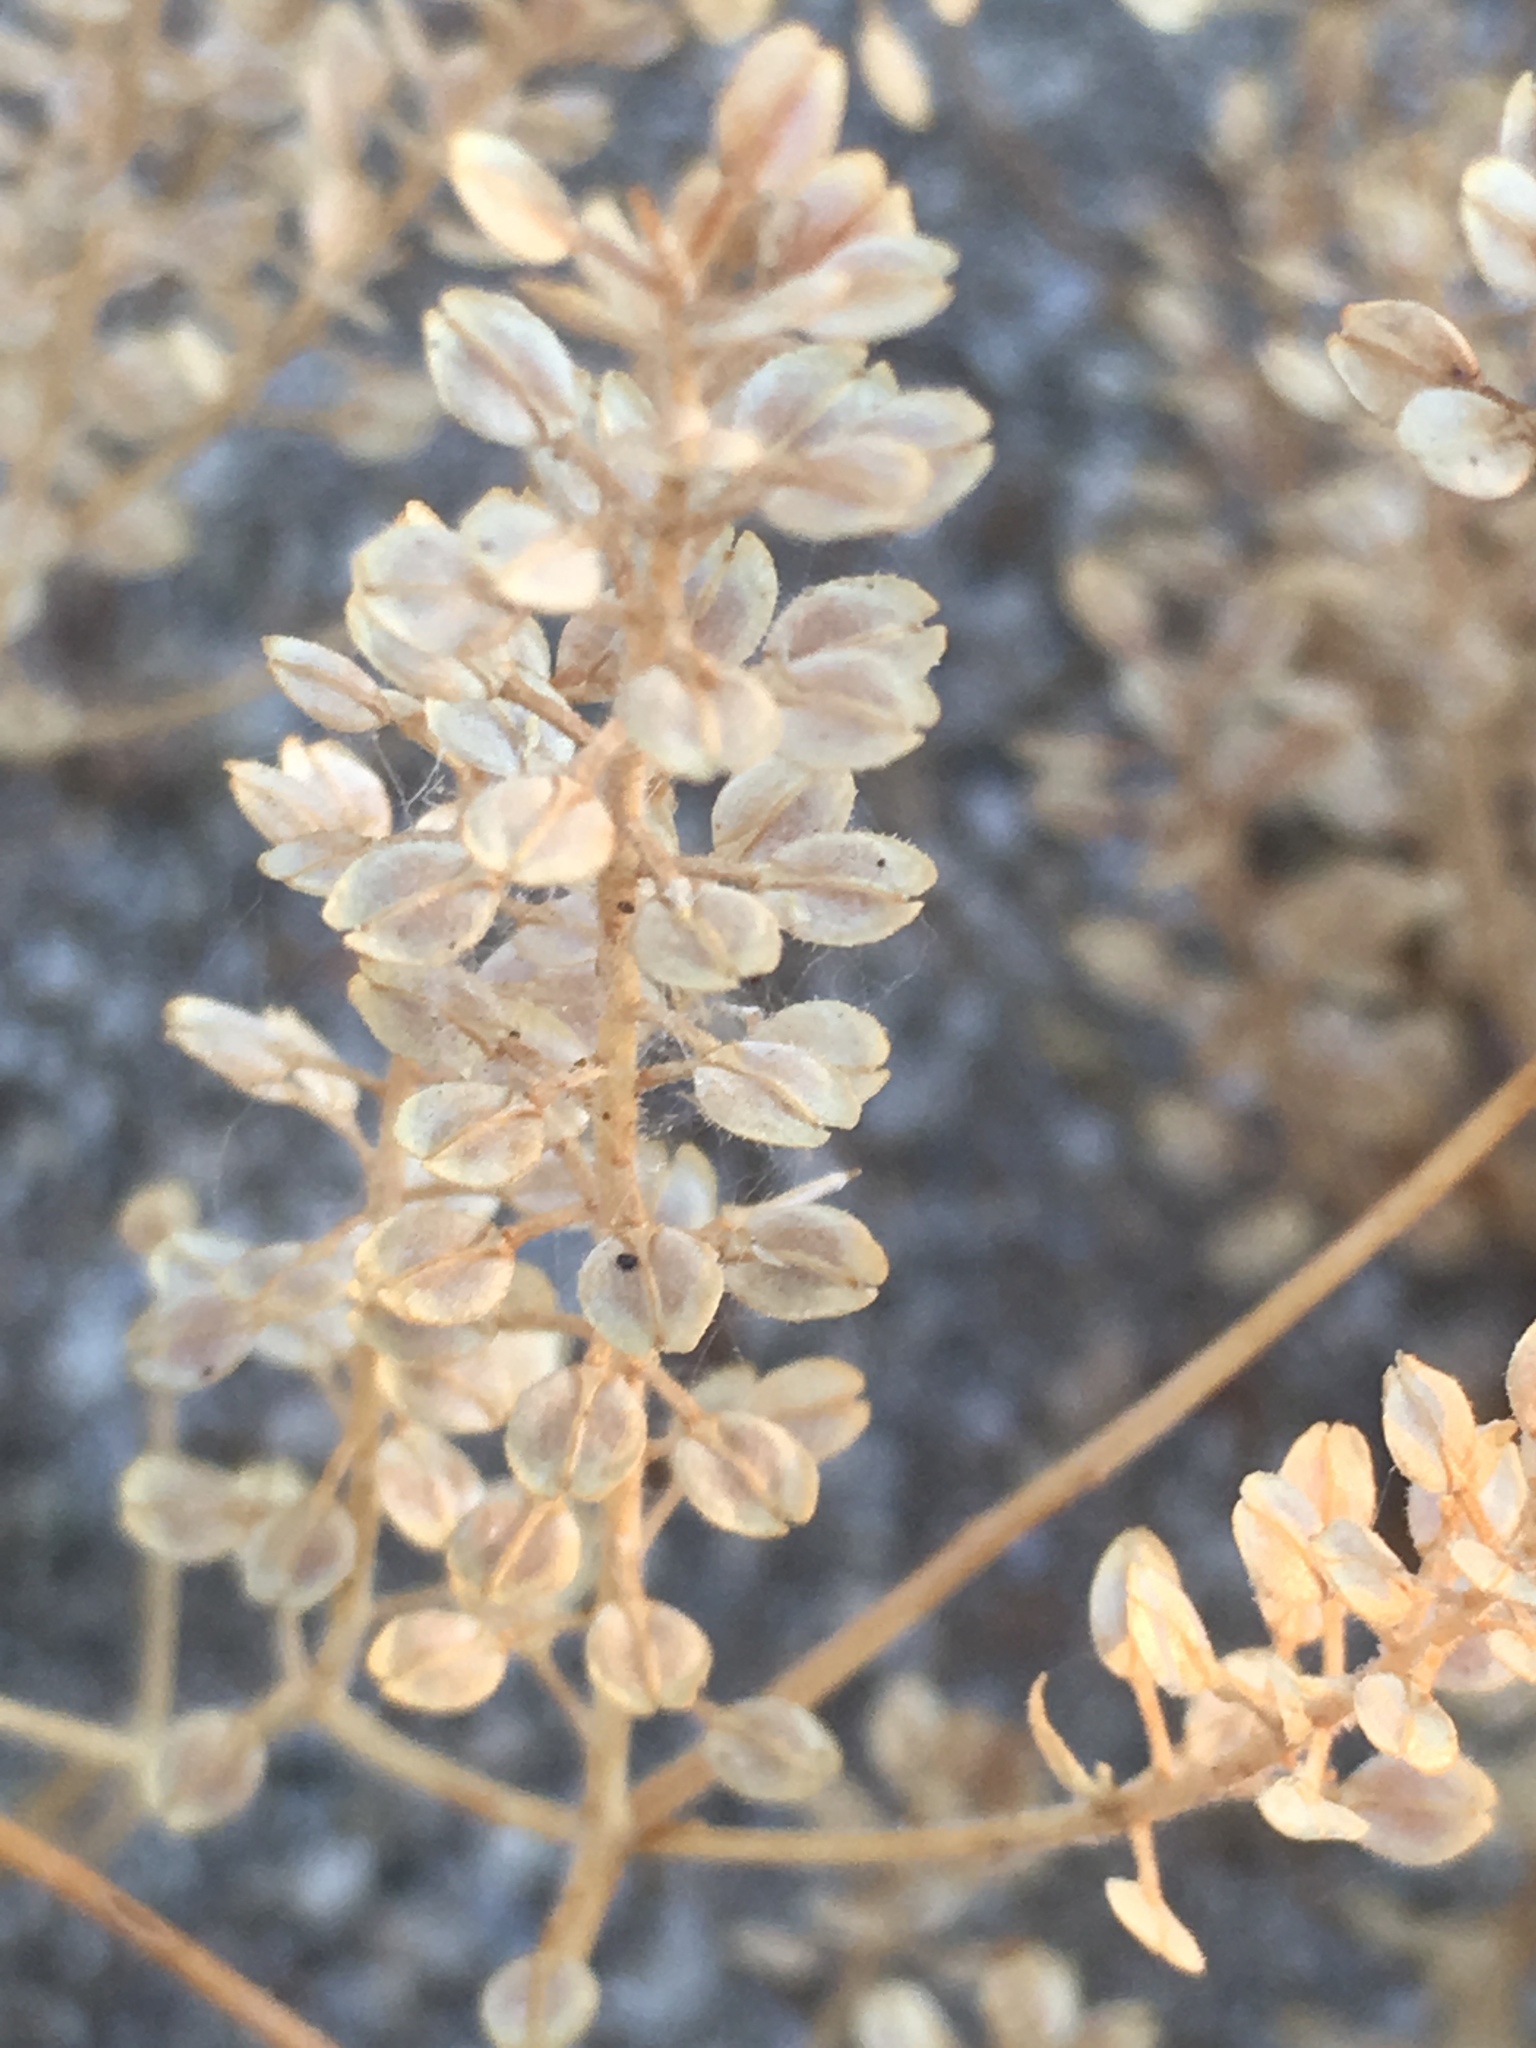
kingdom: Plantae
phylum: Tracheophyta
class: Magnoliopsida
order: Brassicales
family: Brassicaceae
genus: Lepidium
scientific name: Lepidium lasiocarpum
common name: Hairy-pod pepperwort
